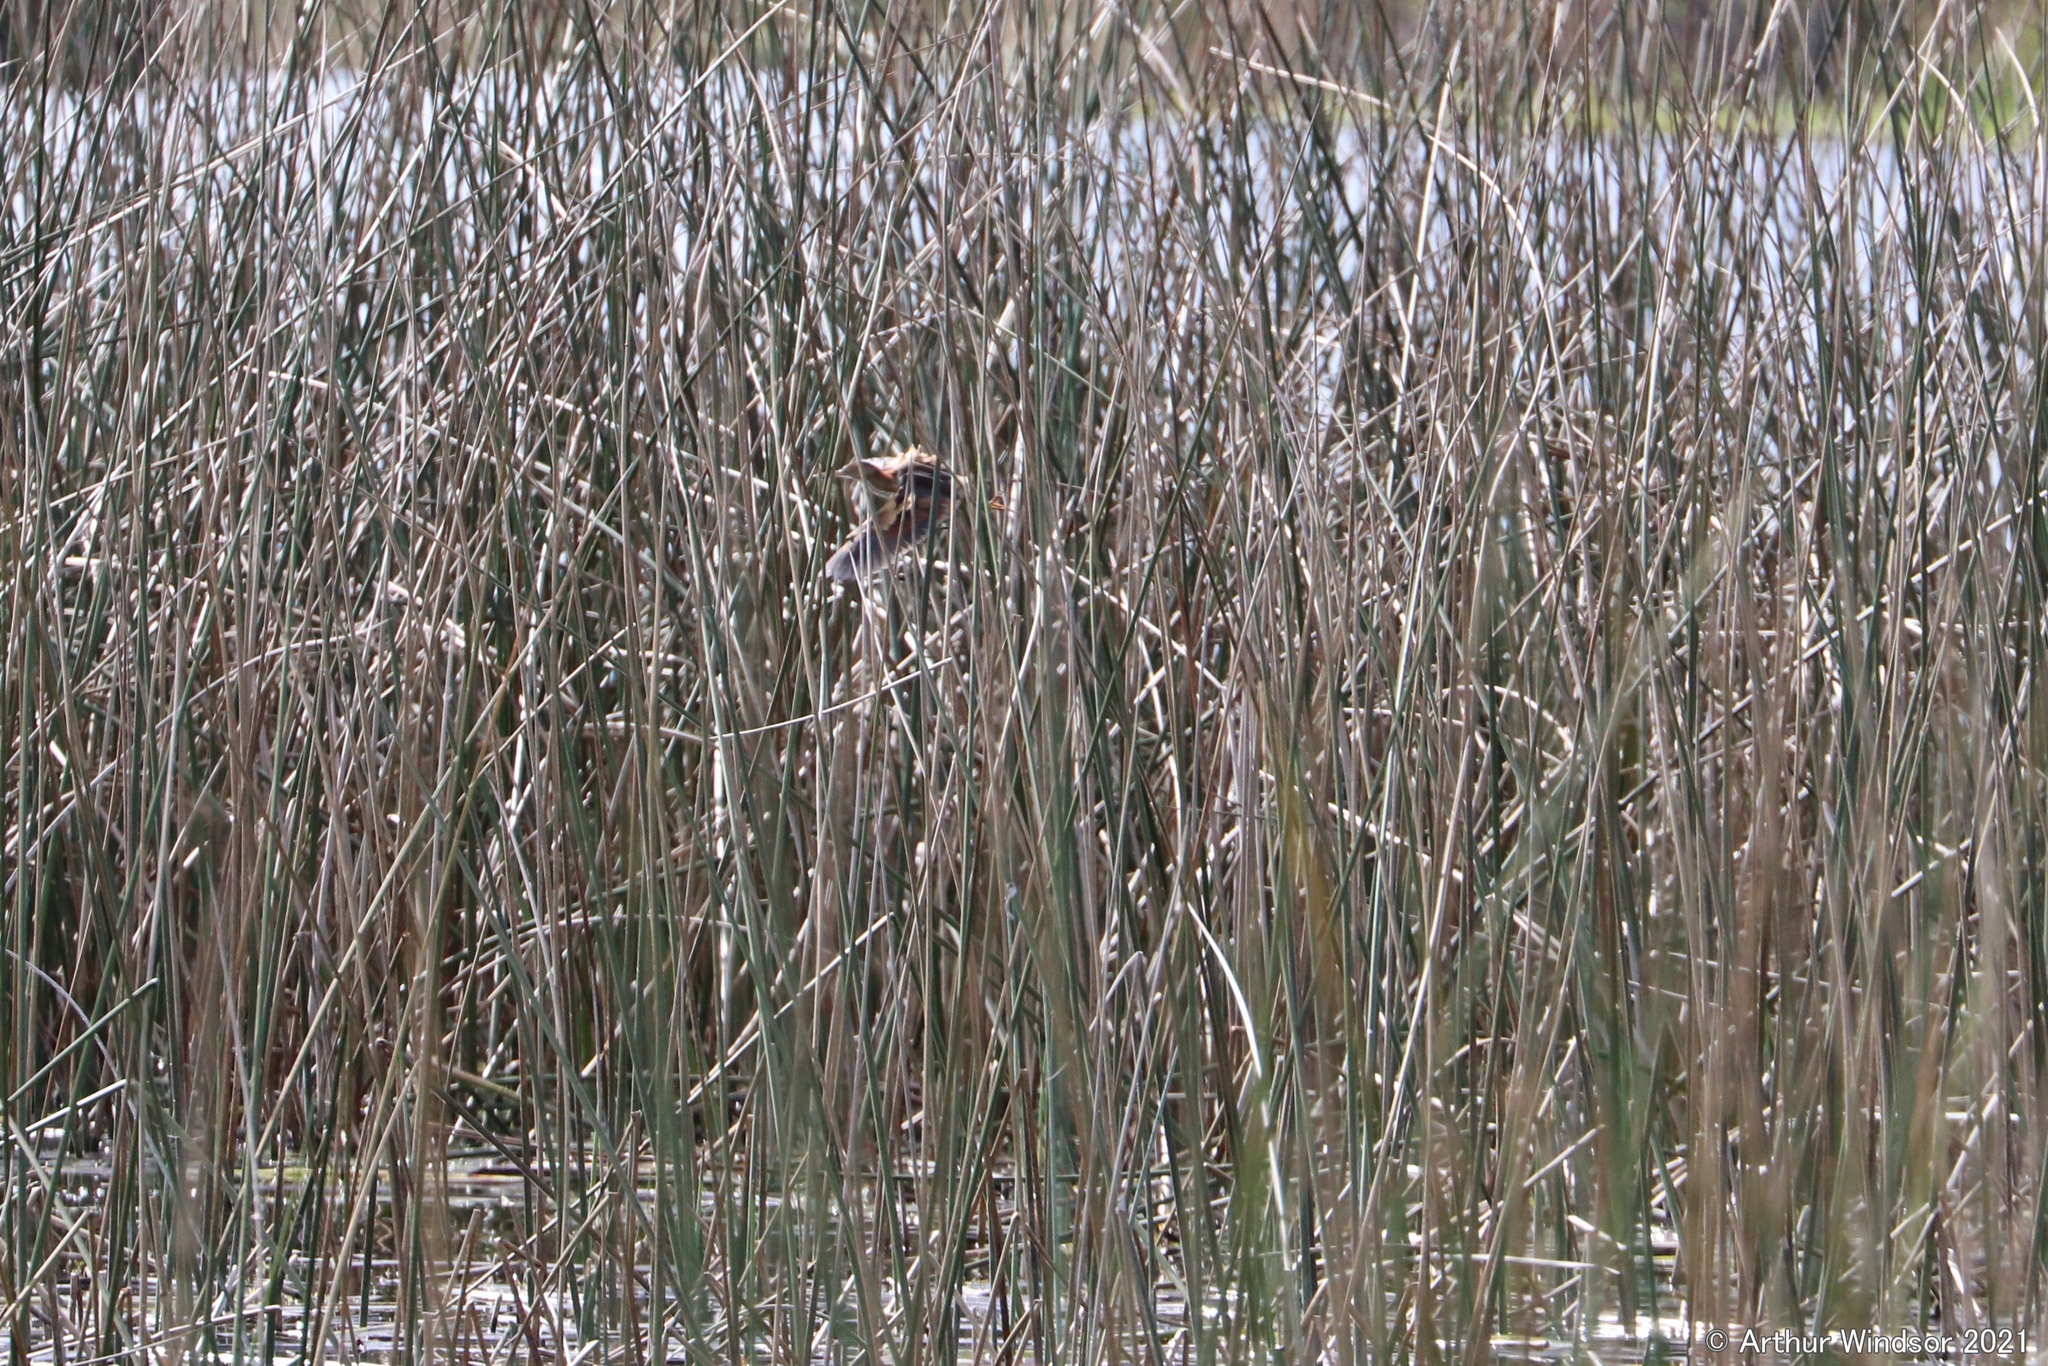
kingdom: Animalia
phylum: Chordata
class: Aves
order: Pelecaniformes
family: Ardeidae
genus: Ixobrychus
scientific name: Ixobrychus exilis
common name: Least bittern
